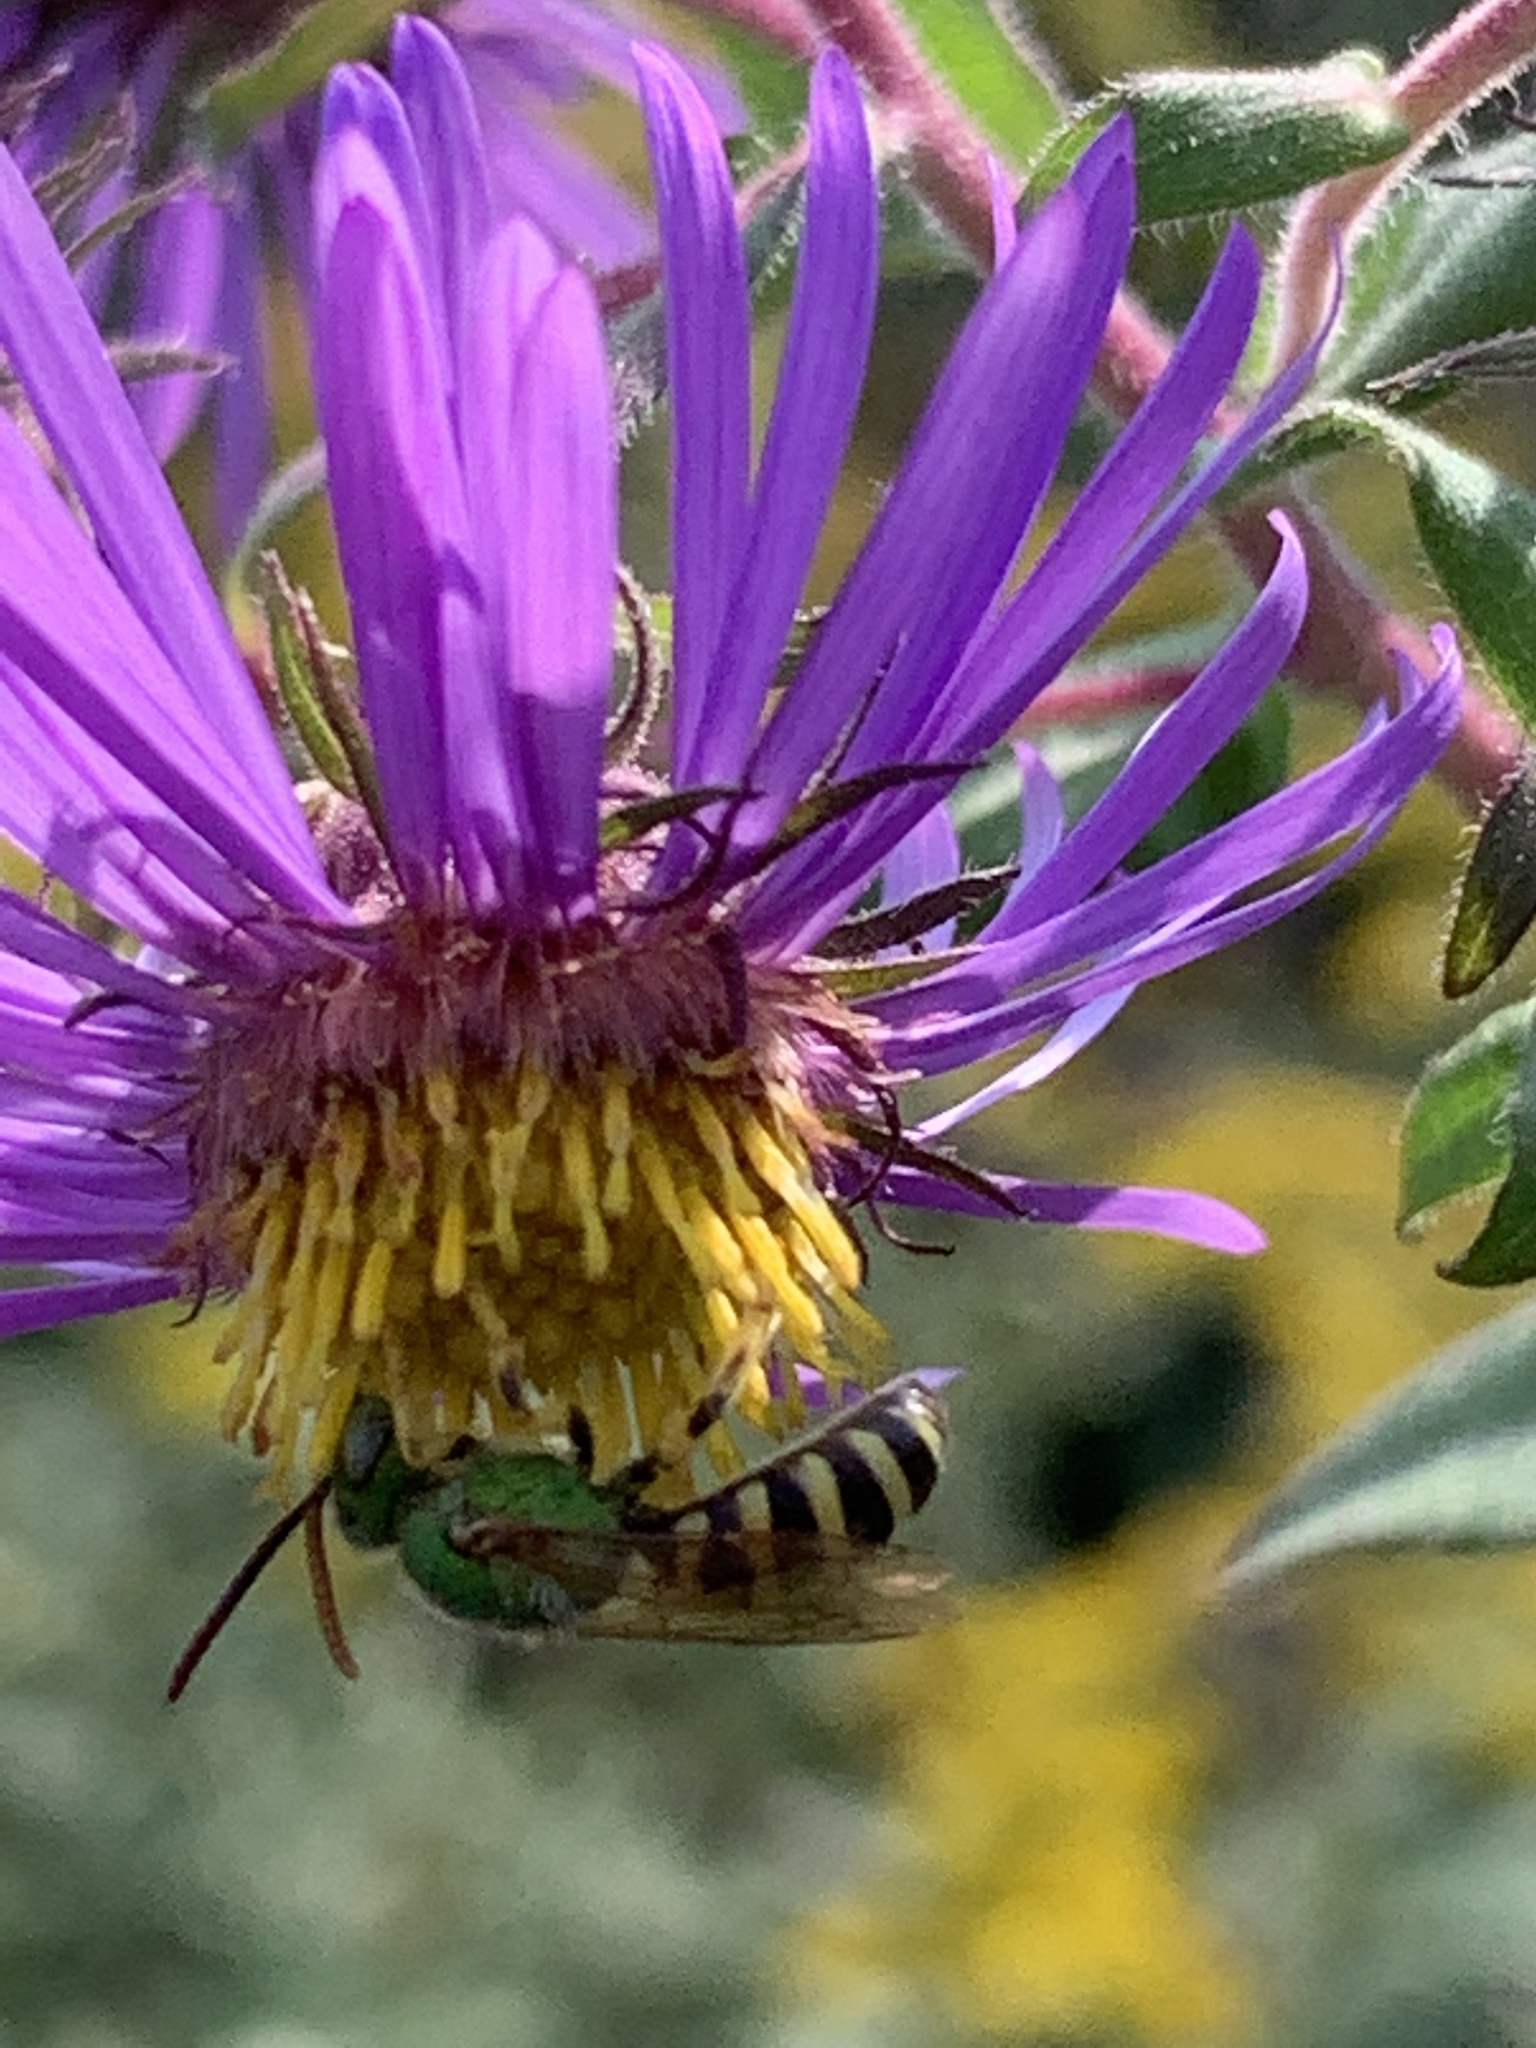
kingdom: Animalia
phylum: Arthropoda
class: Insecta
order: Hymenoptera
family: Halictidae
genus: Agapostemon
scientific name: Agapostemon virescens
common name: Bicolored striped sweat bee
